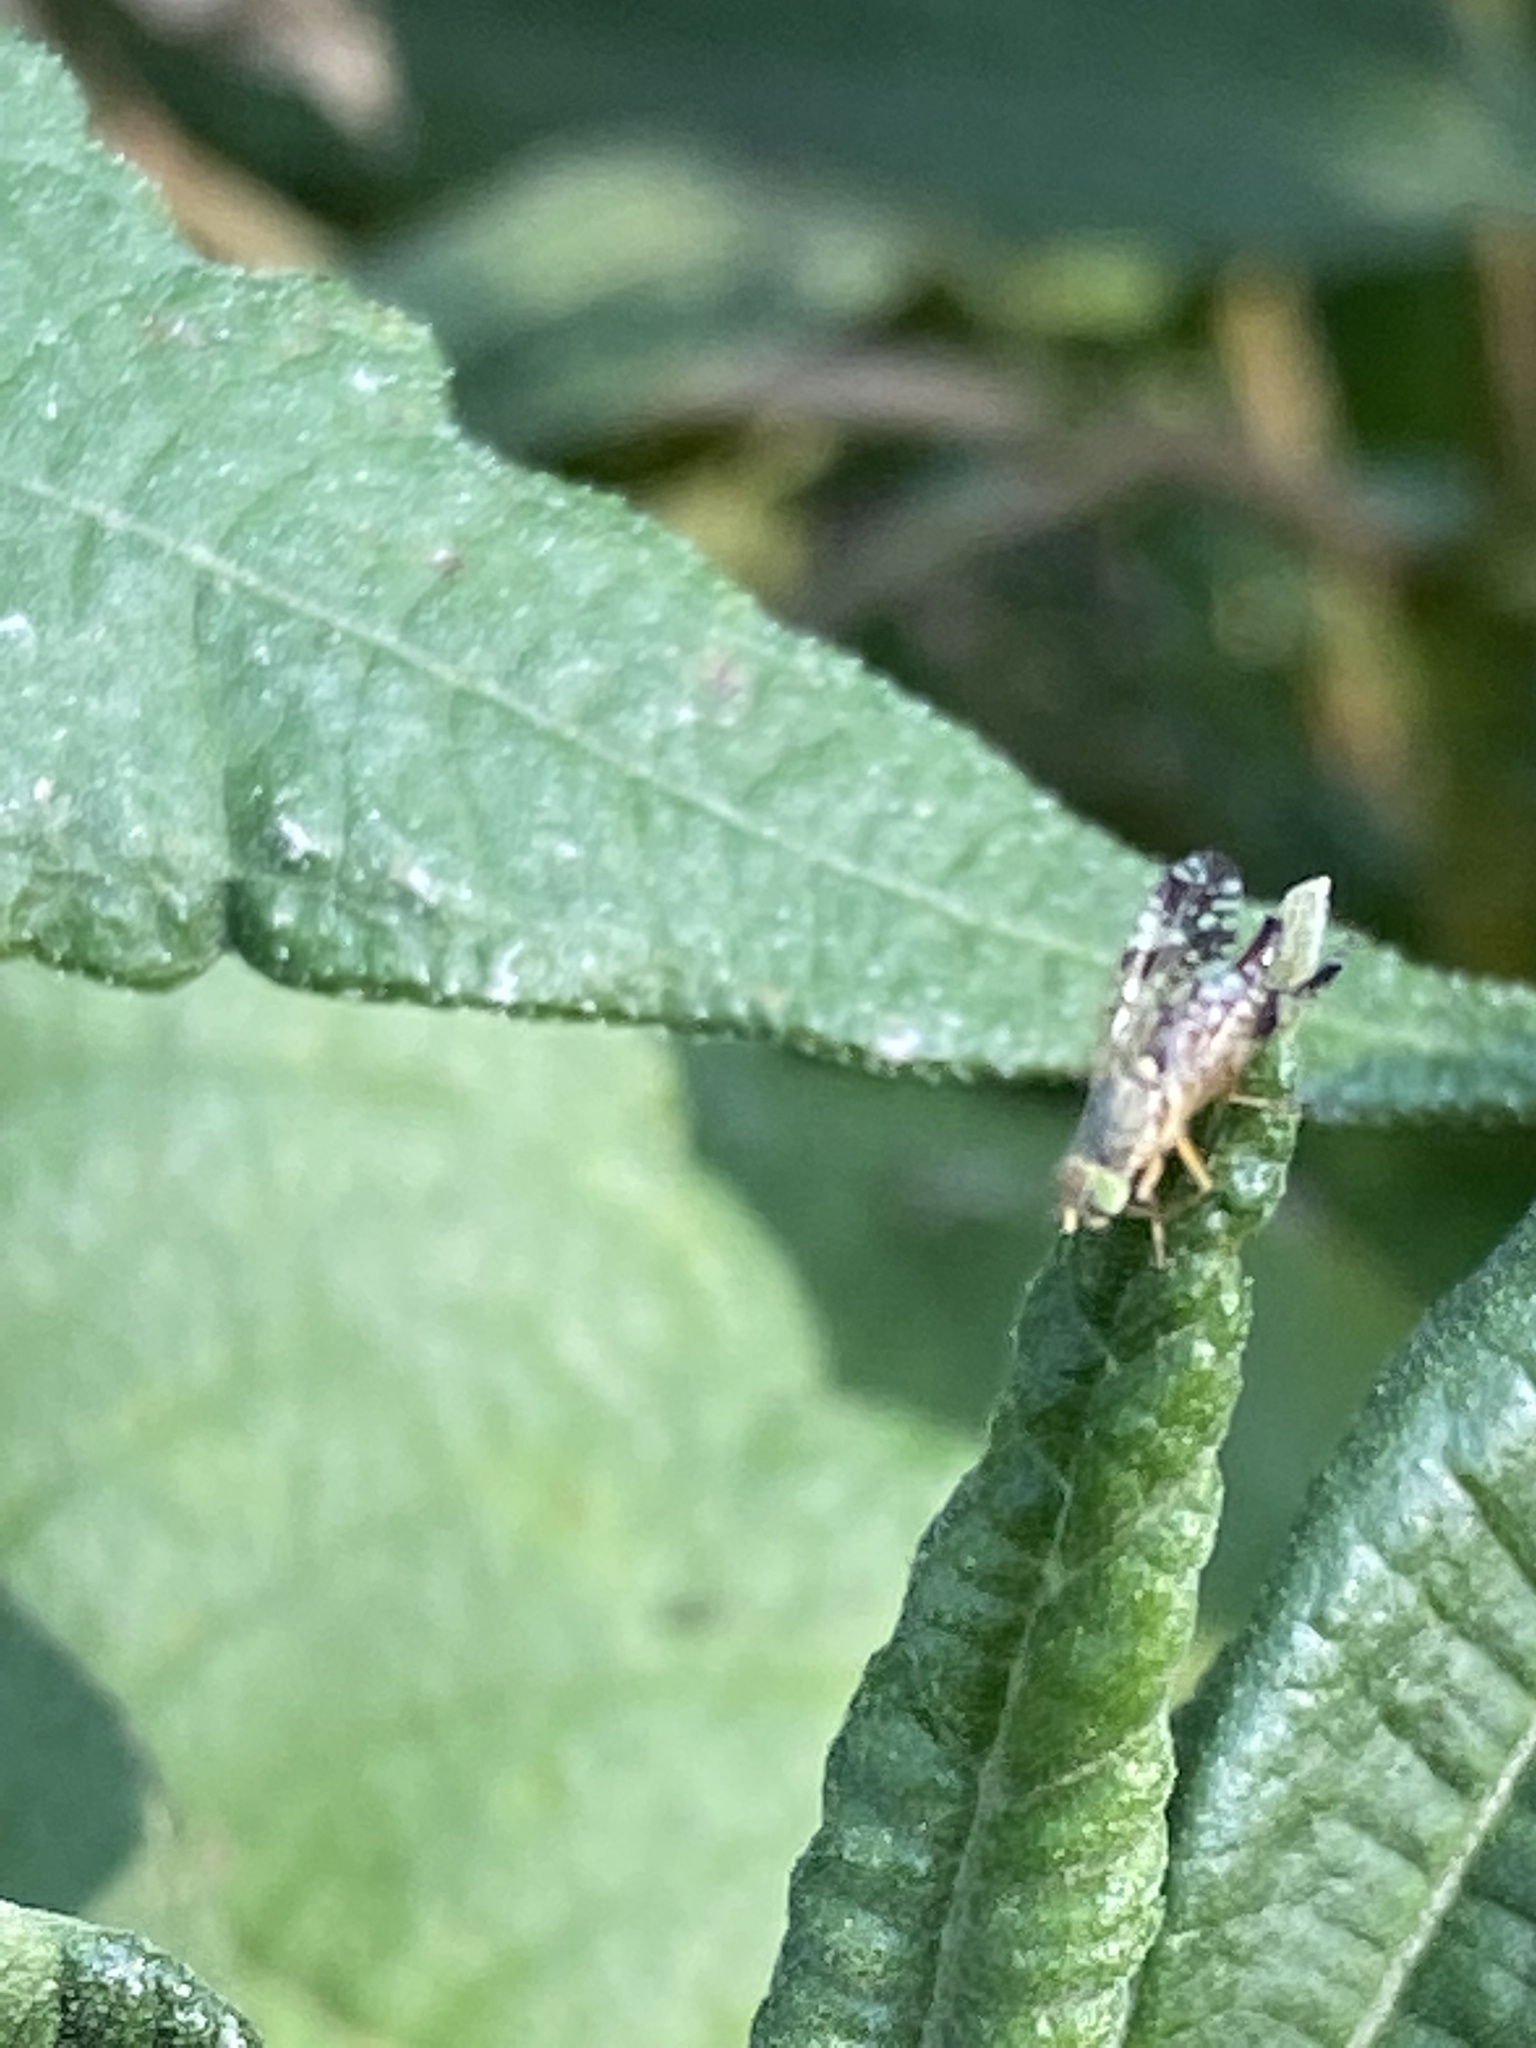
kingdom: Animalia
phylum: Arthropoda
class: Insecta
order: Diptera
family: Tephritidae
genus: Neotephritis
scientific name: Neotephritis finalis
